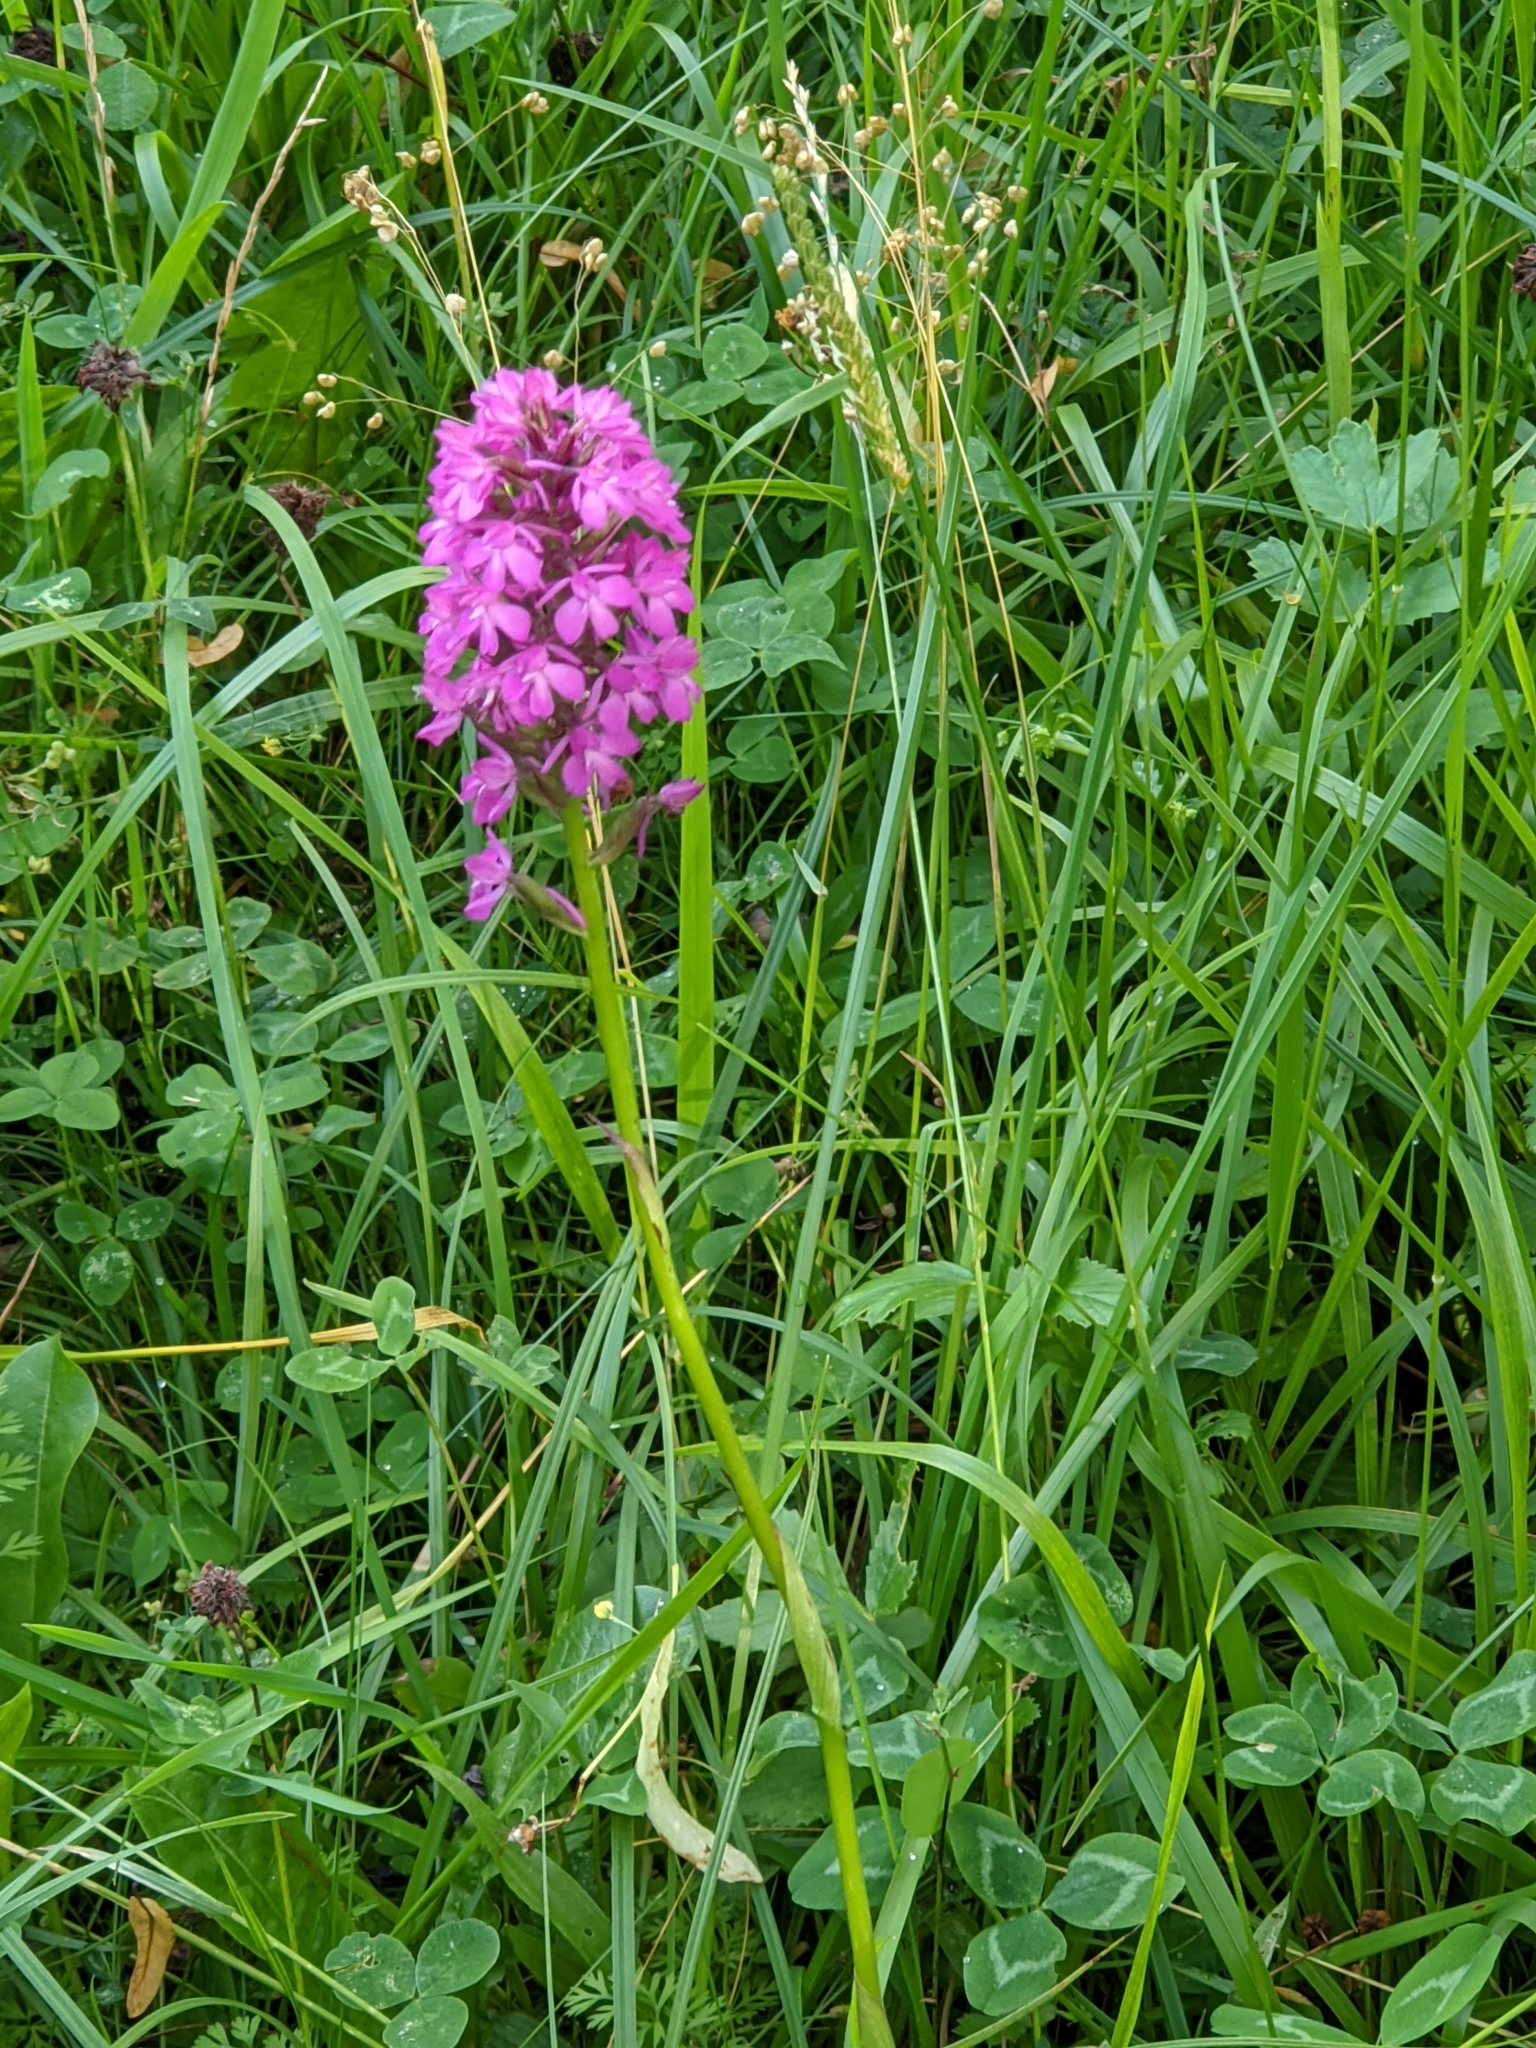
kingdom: Plantae
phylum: Tracheophyta
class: Liliopsida
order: Asparagales
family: Orchidaceae
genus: Anacamptis
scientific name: Anacamptis pyramidalis
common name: Pyramidal orchid
